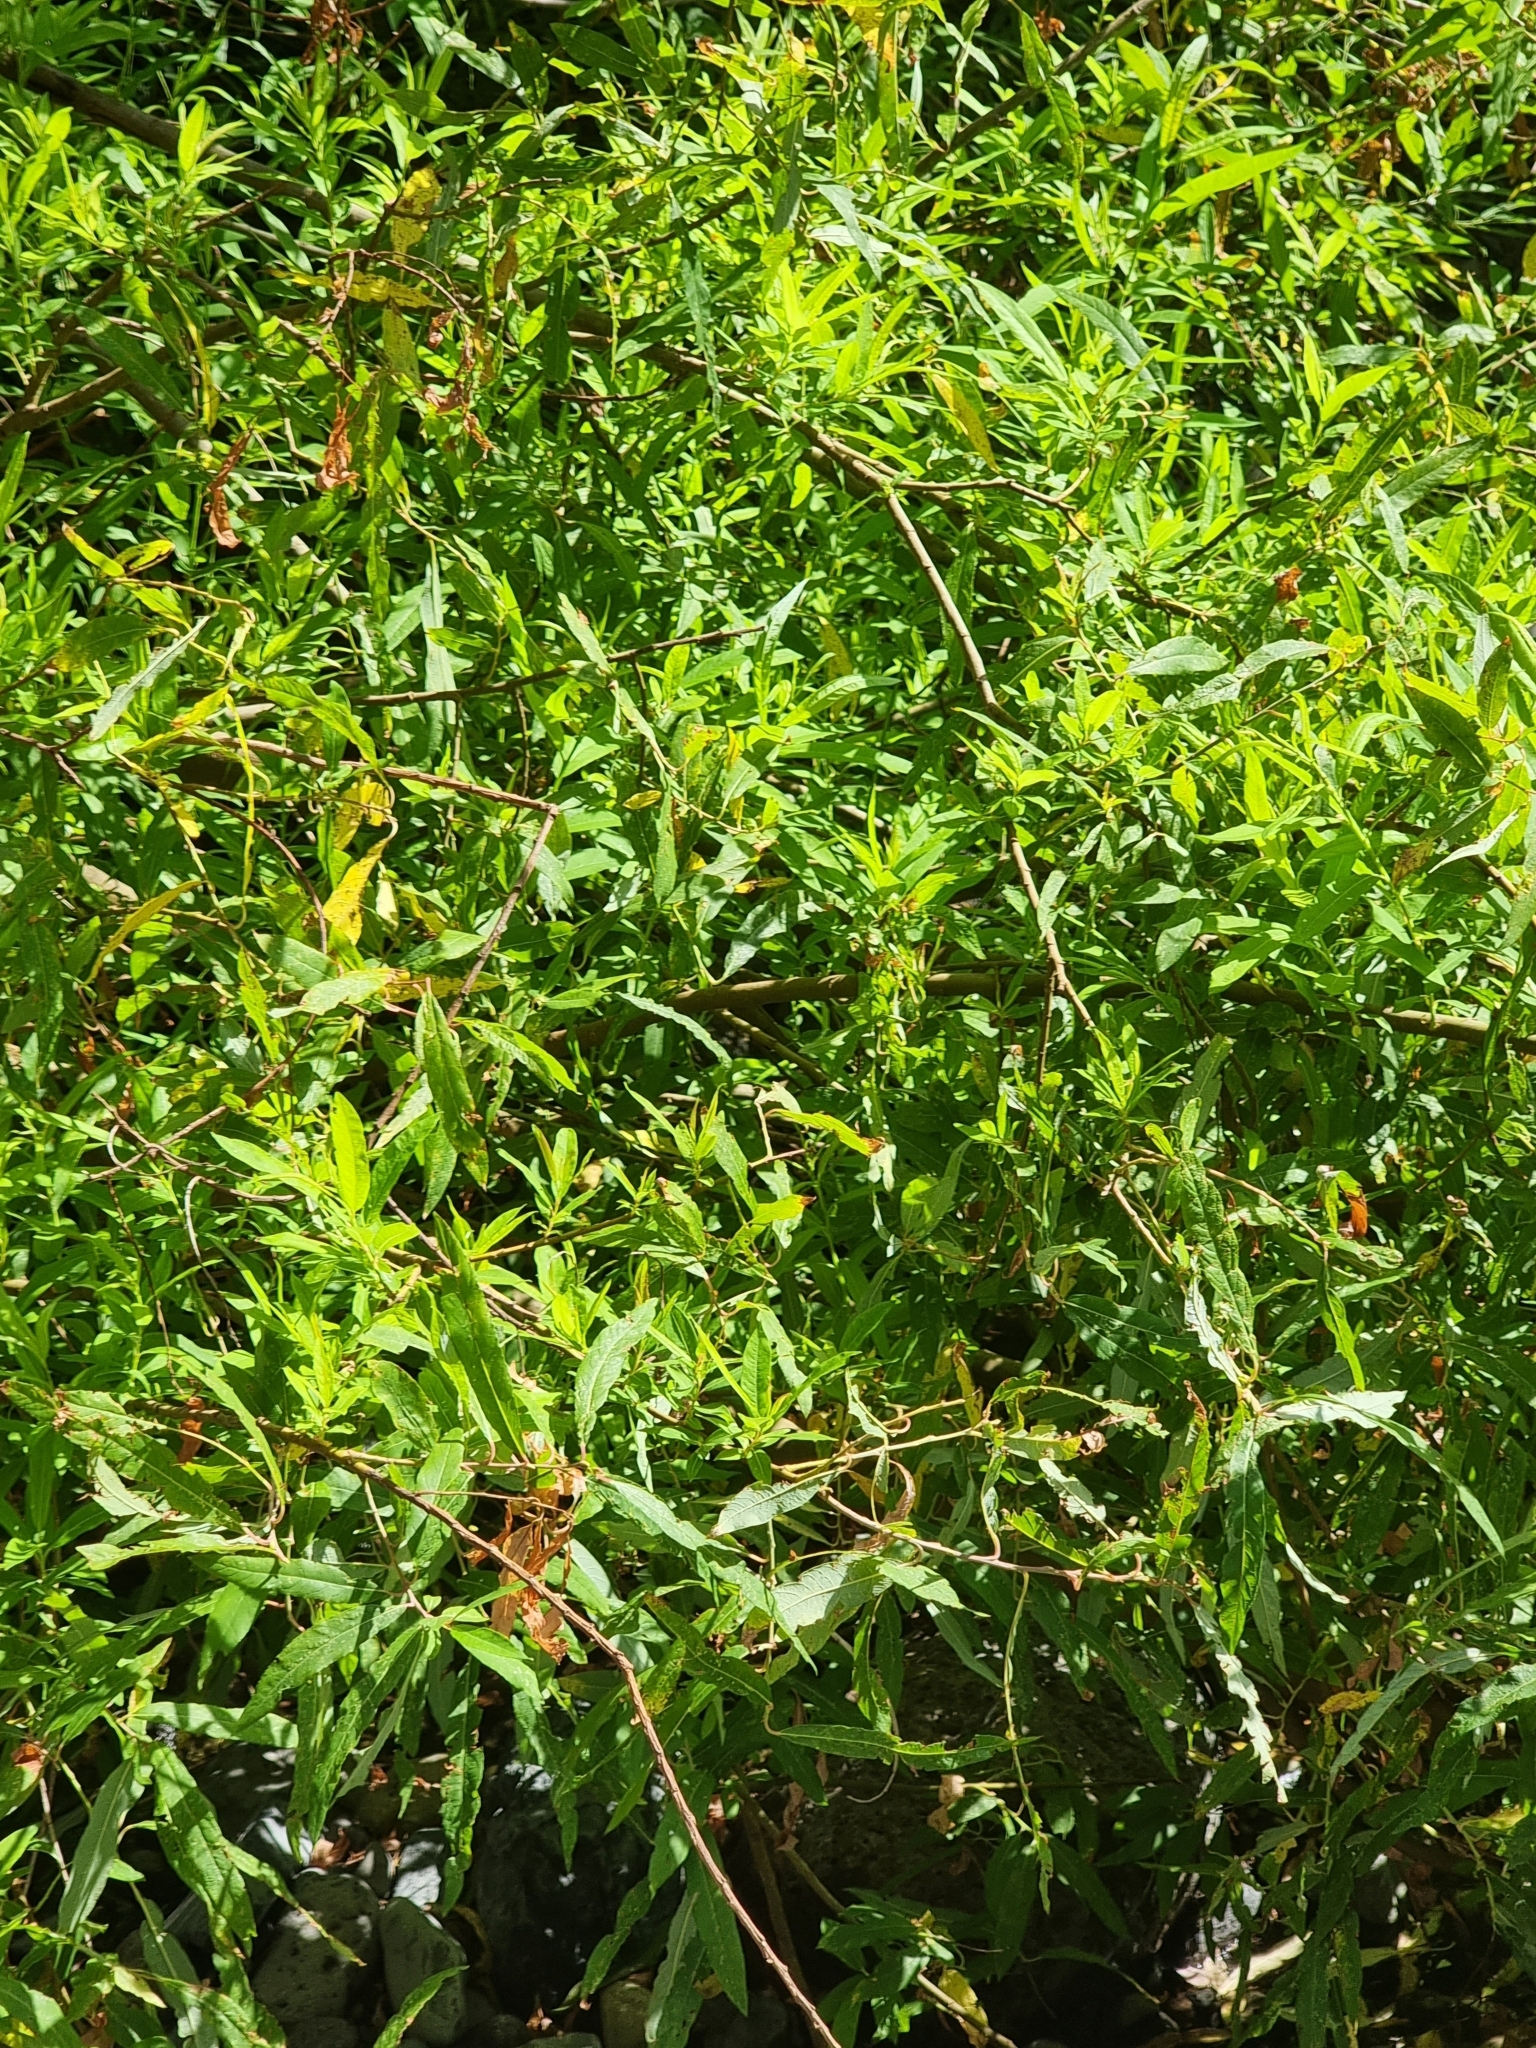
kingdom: Plantae
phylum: Tracheophyta
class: Magnoliopsida
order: Malpighiales
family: Salicaceae
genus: Salix
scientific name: Salix canariensis
